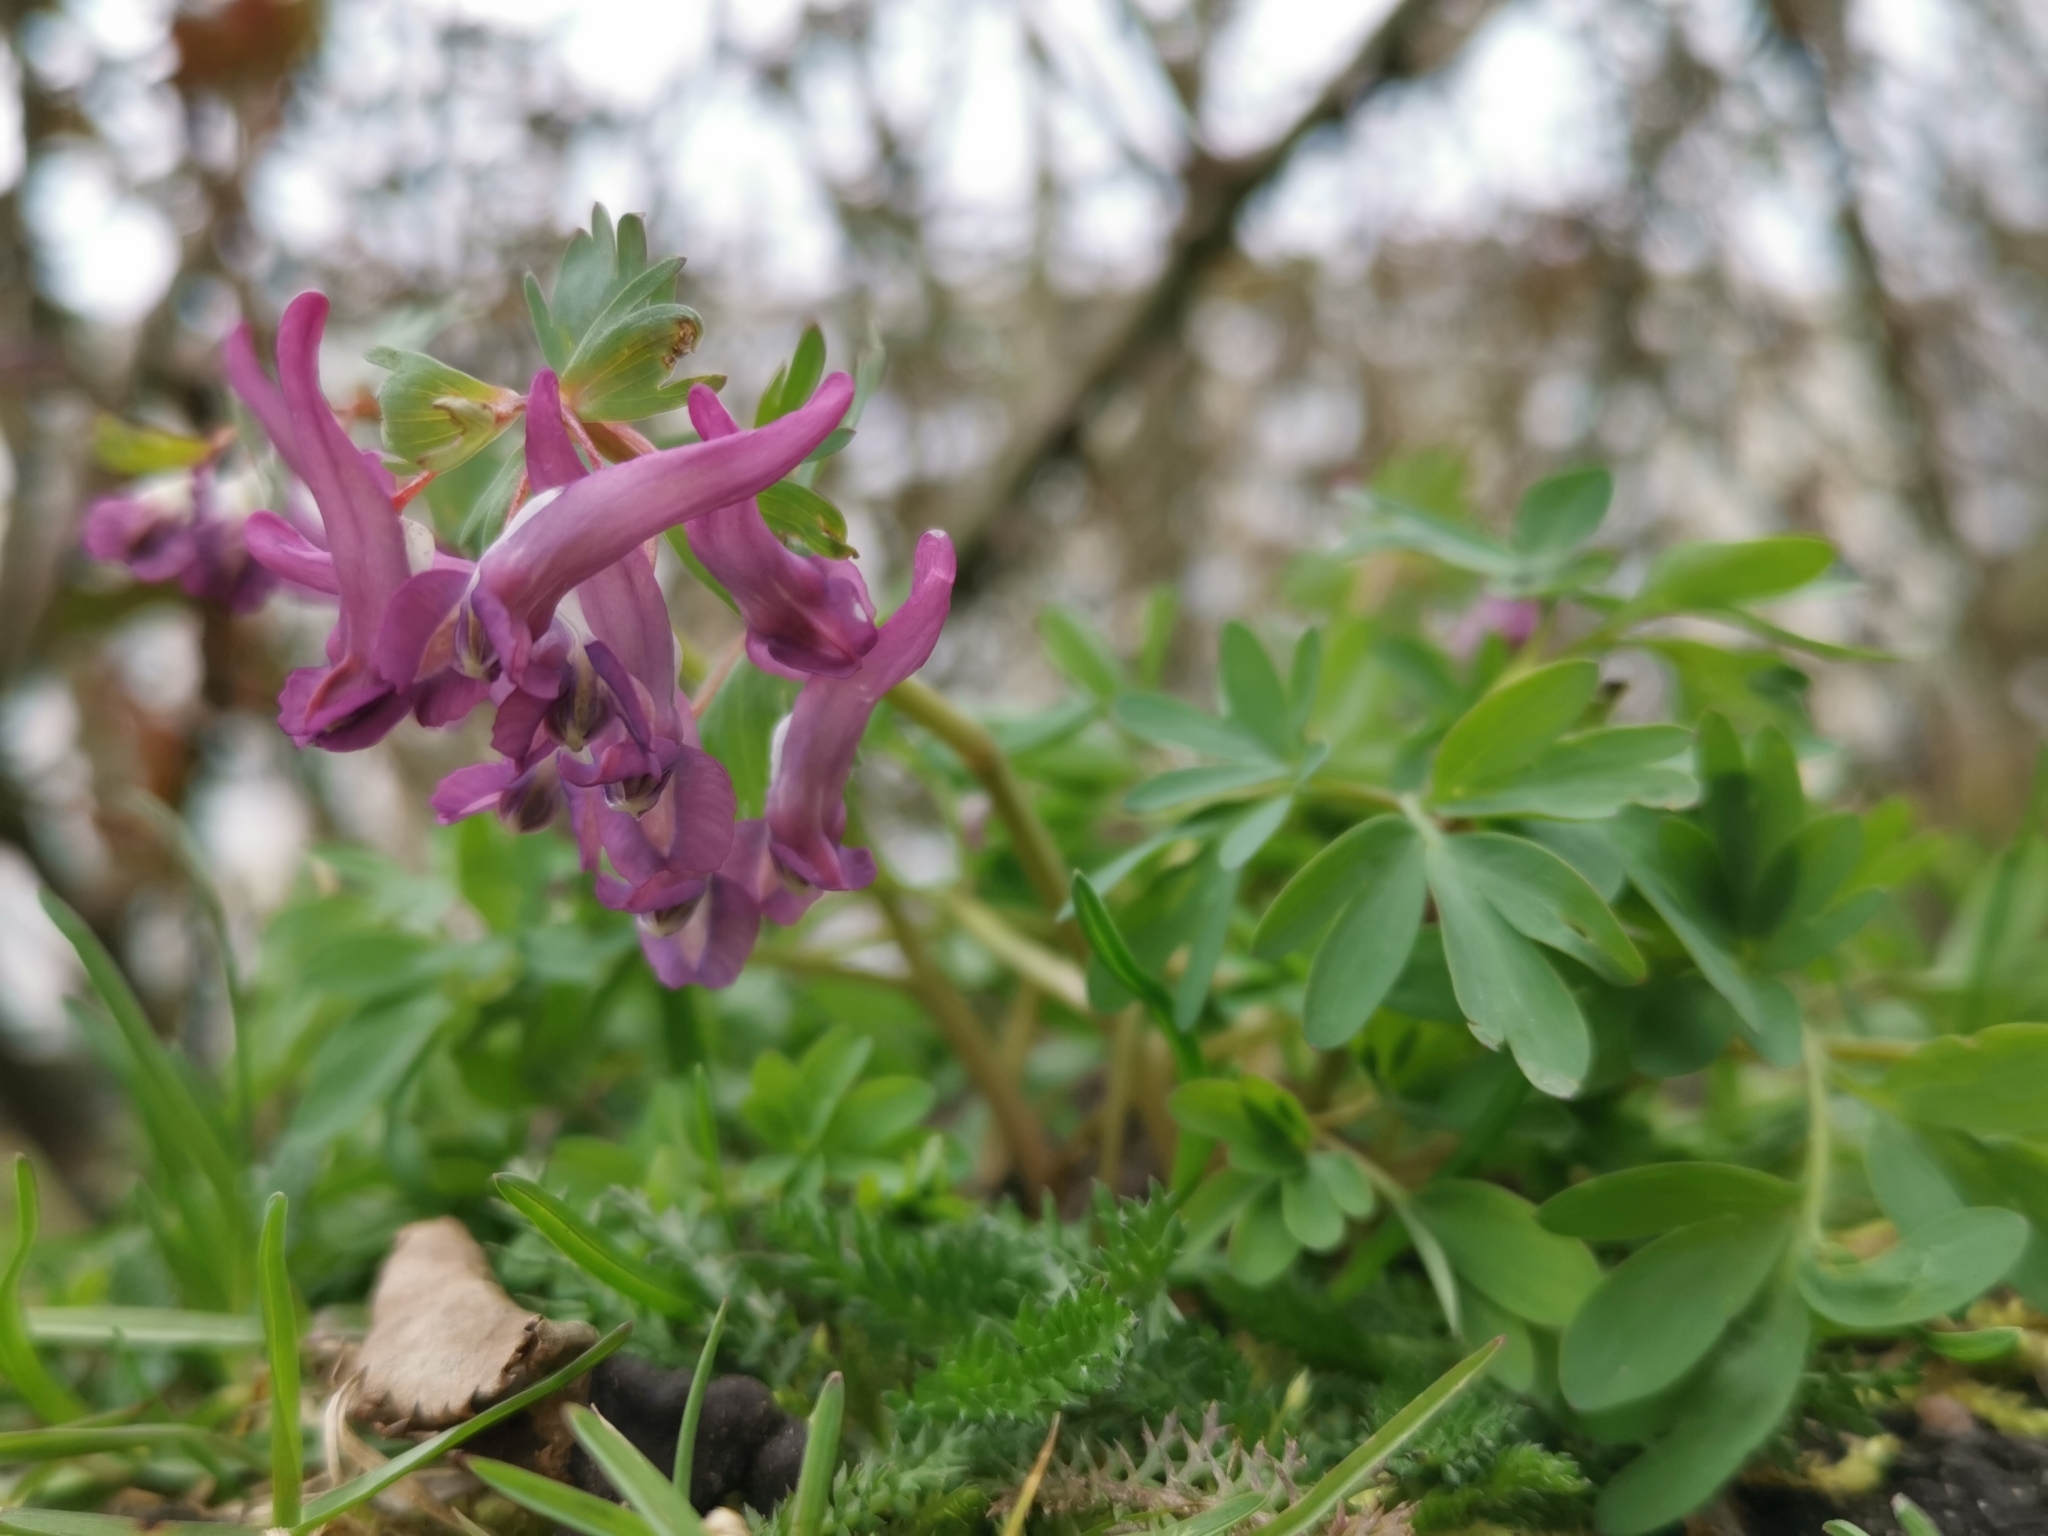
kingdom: Plantae
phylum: Tracheophyta
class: Magnoliopsida
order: Ranunculales
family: Papaveraceae
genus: Corydalis
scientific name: Corydalis solida
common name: Bird-in-a-bush
